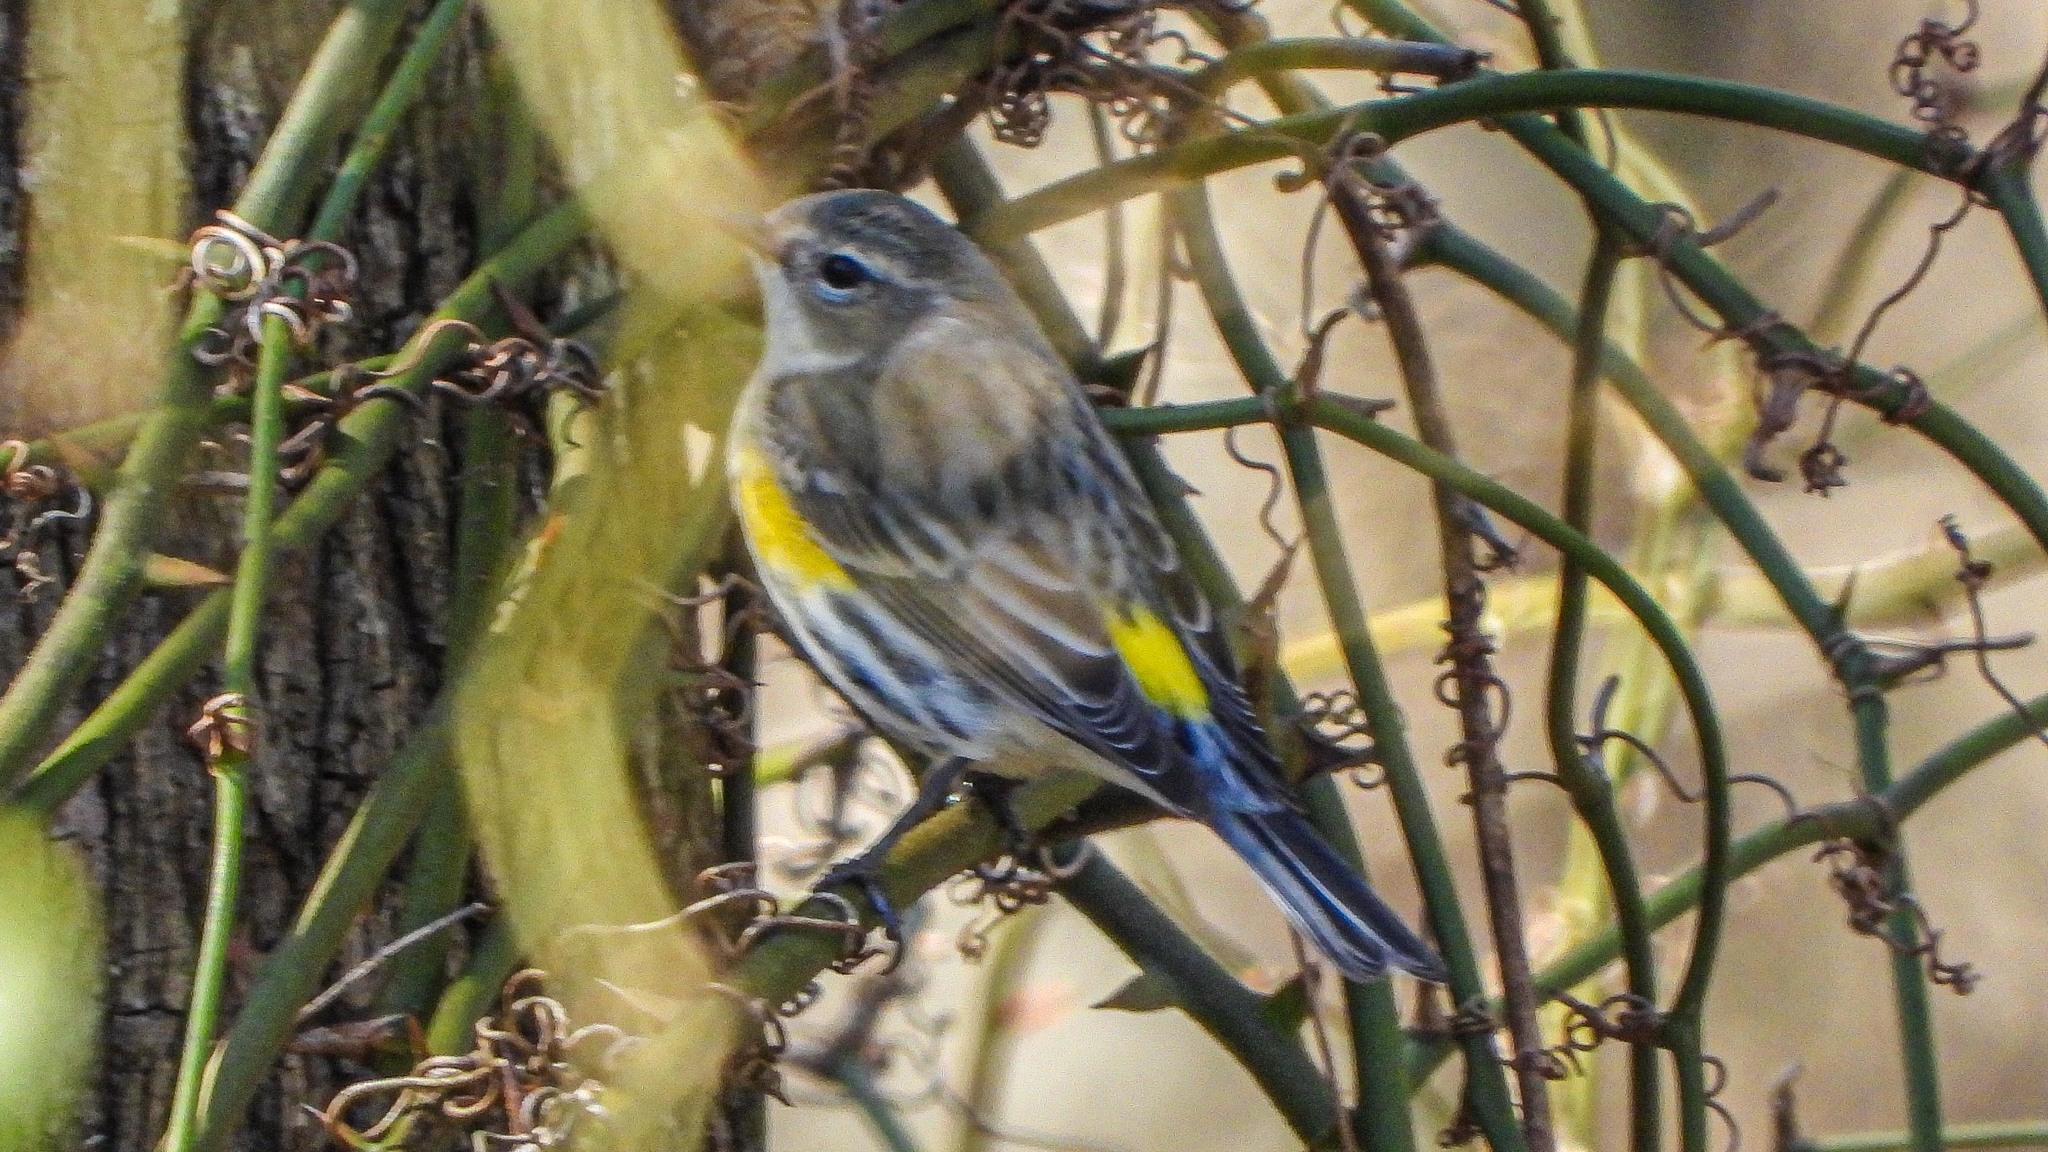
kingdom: Animalia
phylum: Chordata
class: Aves
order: Passeriformes
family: Parulidae
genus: Setophaga
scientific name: Setophaga coronata
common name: Myrtle warbler
